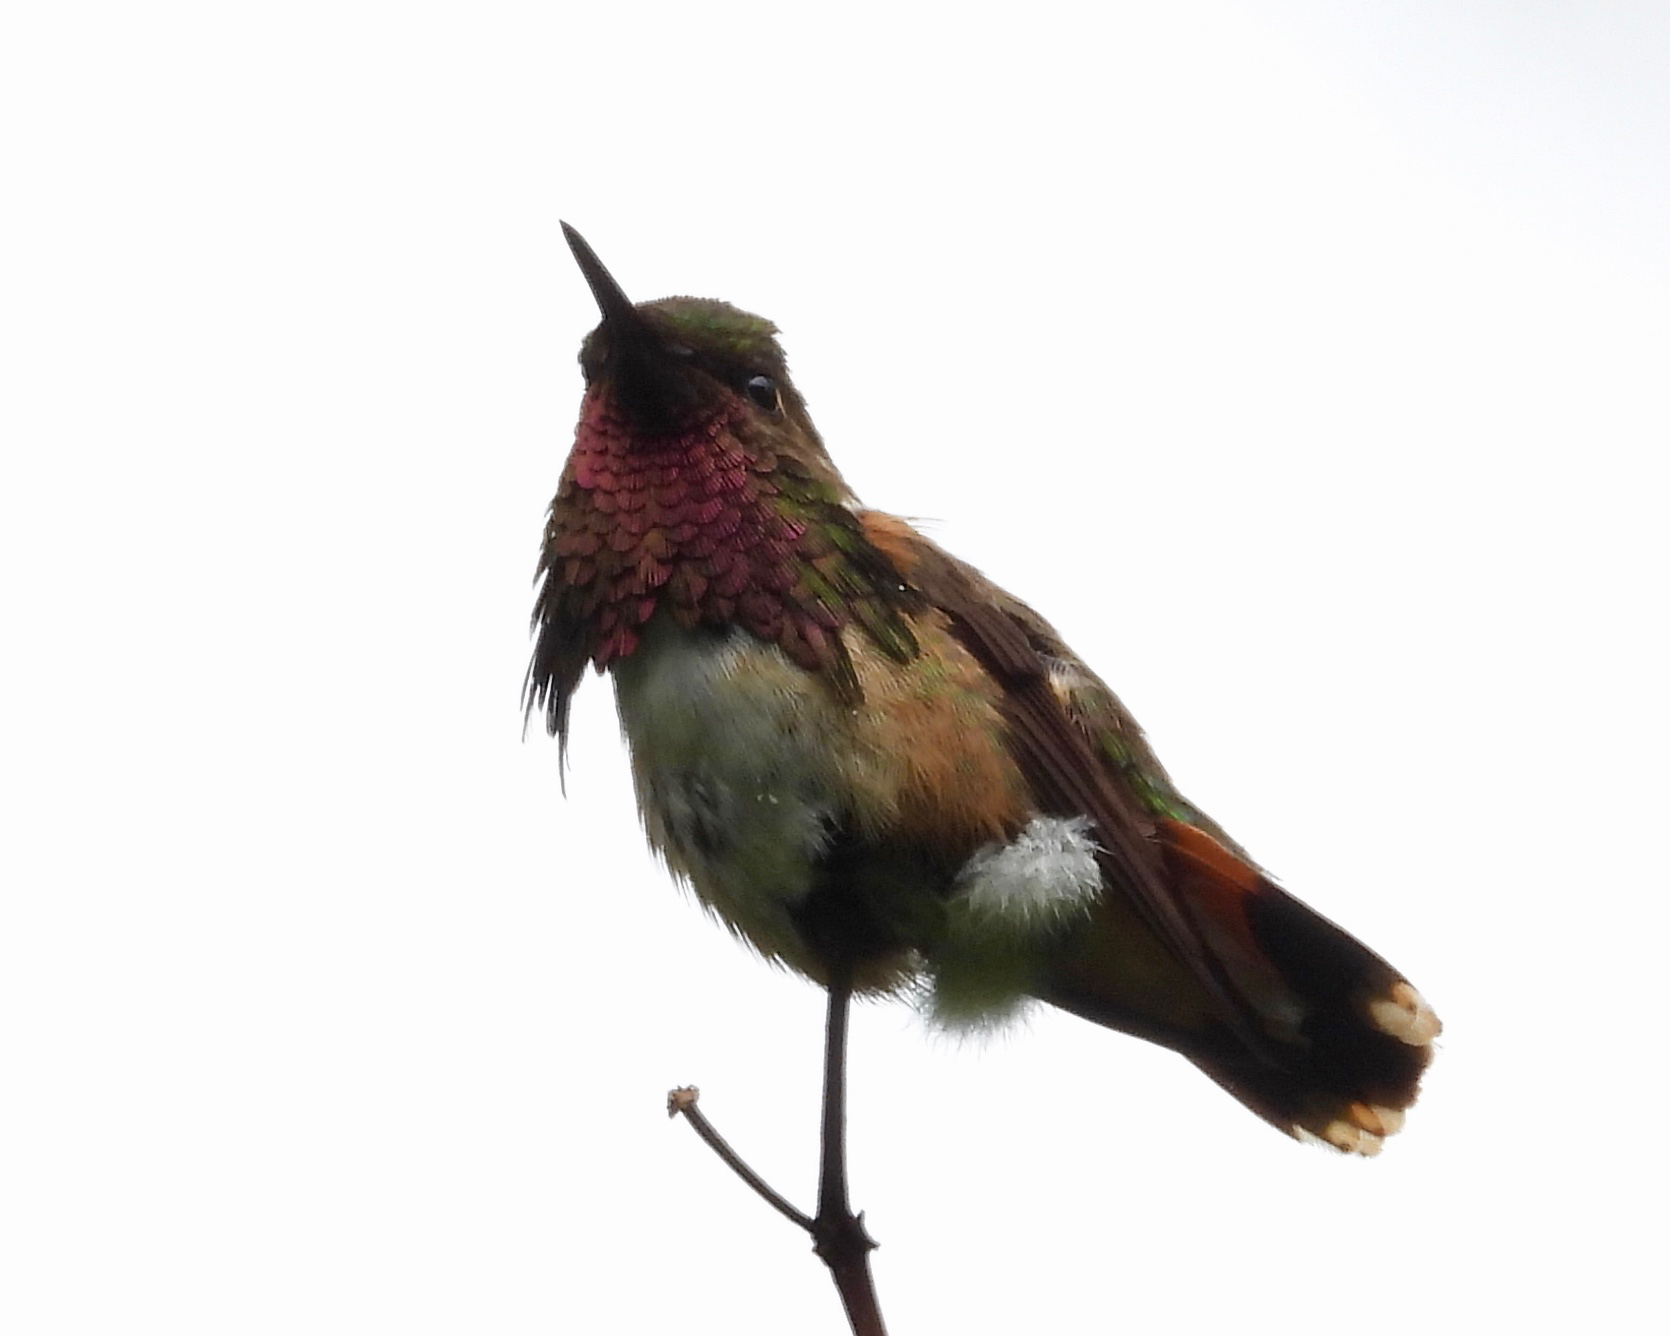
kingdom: Animalia
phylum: Chordata
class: Aves
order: Apodiformes
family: Trochilidae
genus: Selasphorus
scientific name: Selasphorus ellioti
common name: Wine-throated hummingbird
